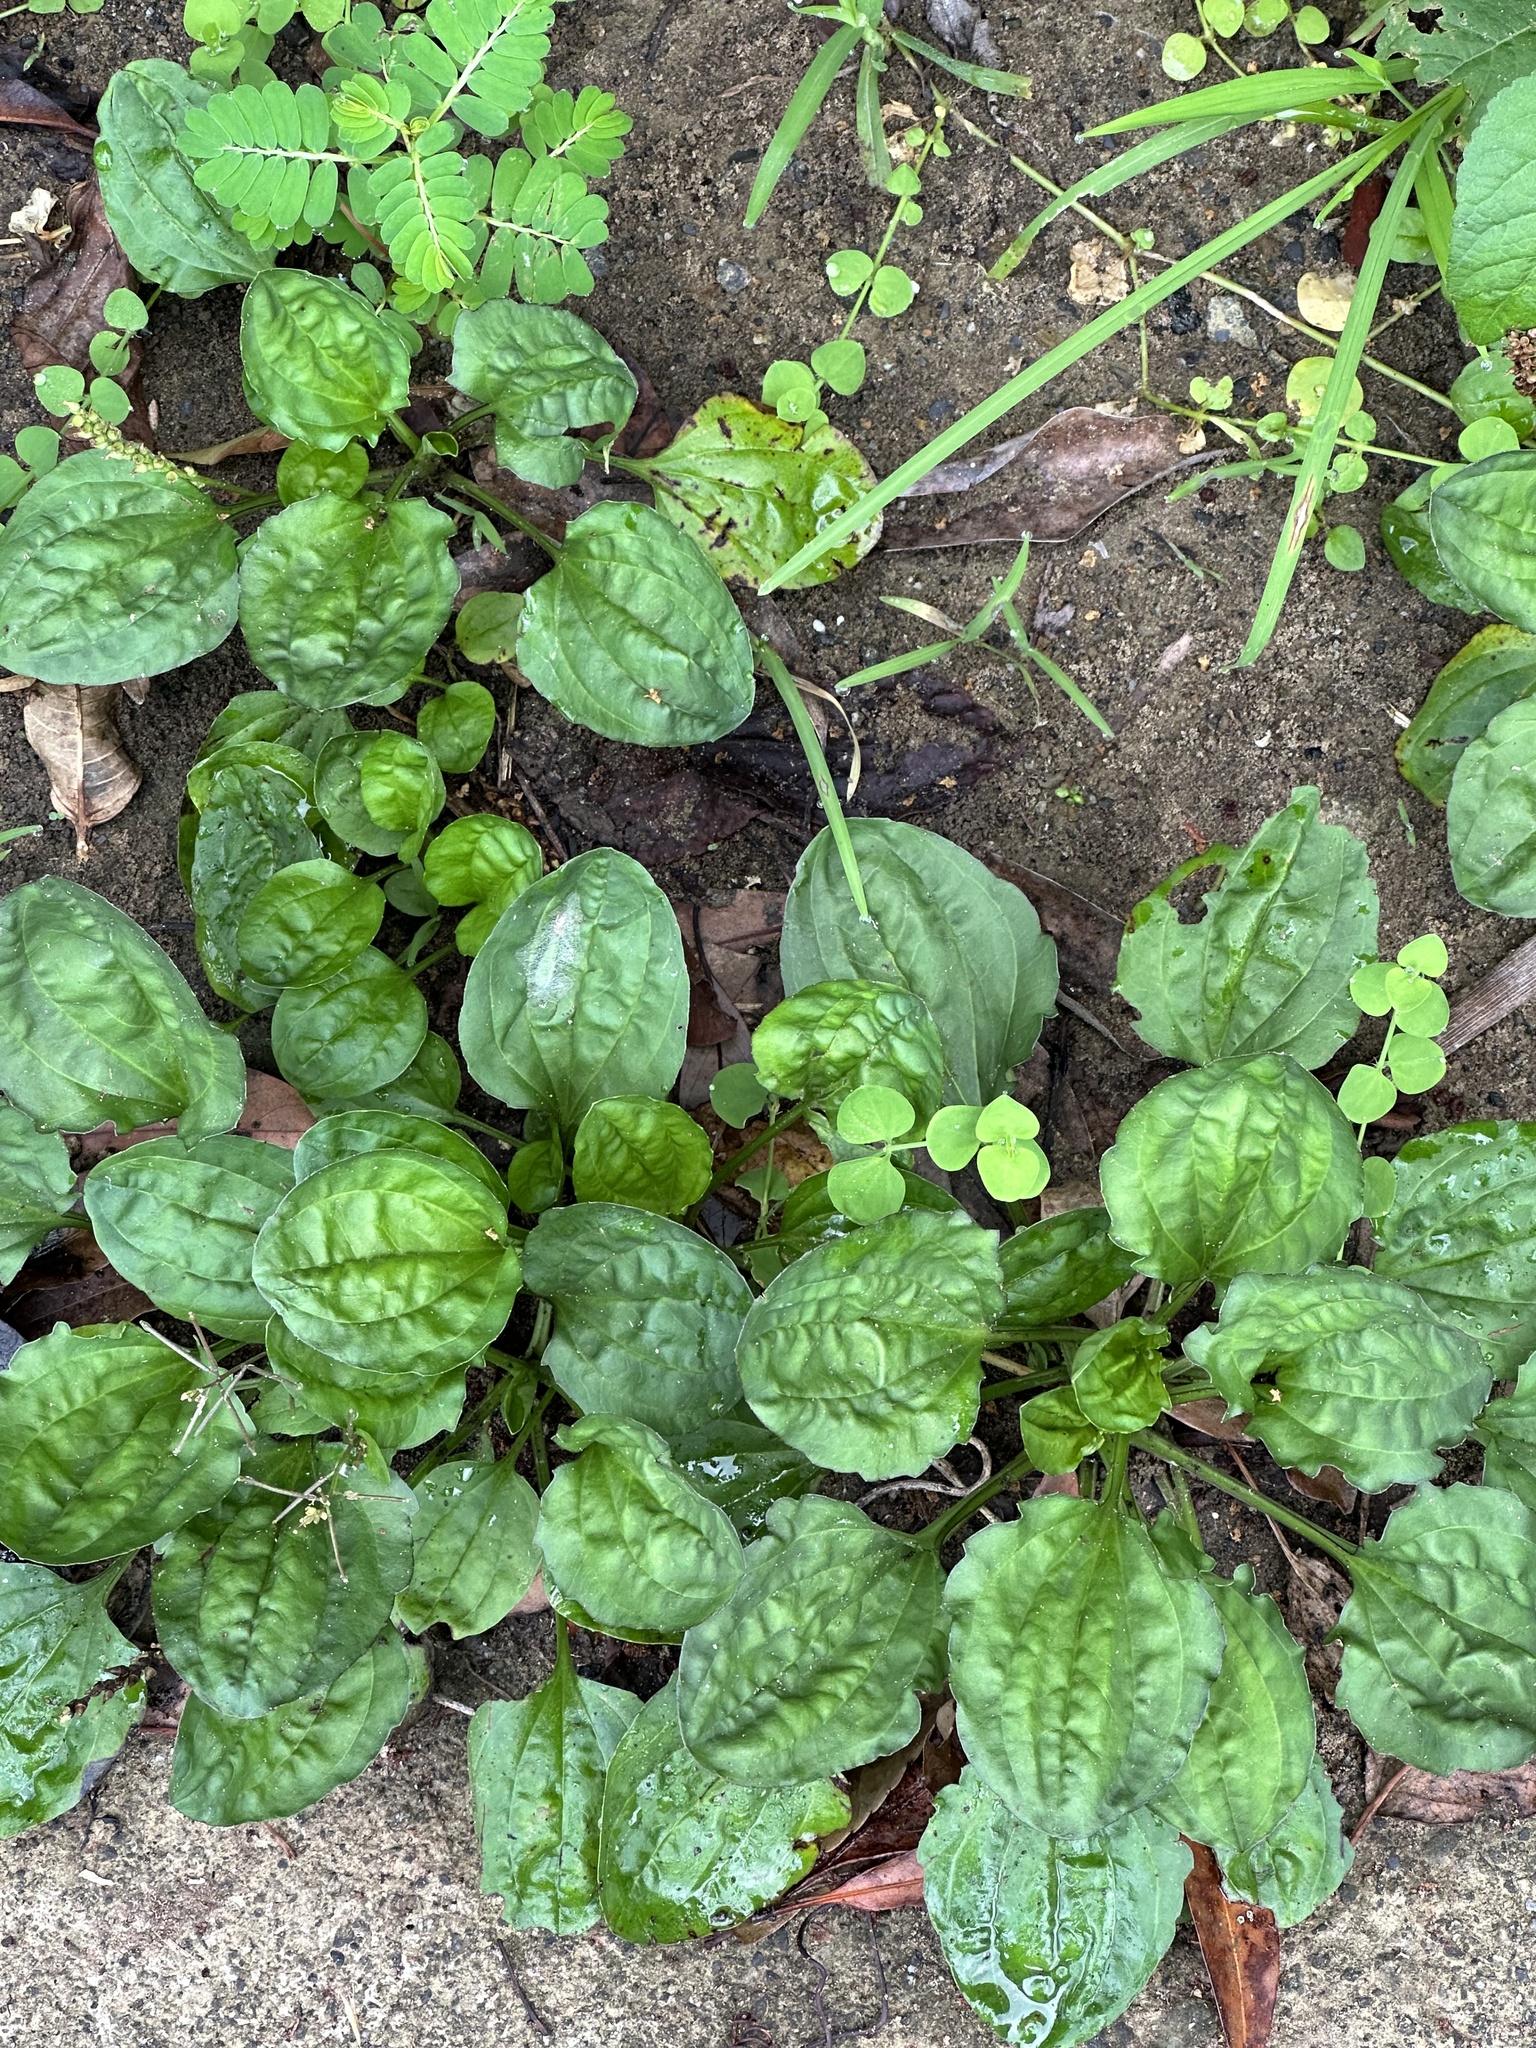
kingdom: Plantae
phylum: Tracheophyta
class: Magnoliopsida
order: Lamiales
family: Plantaginaceae
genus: Plantago
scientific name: Plantago asiatica
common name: Psyllium
